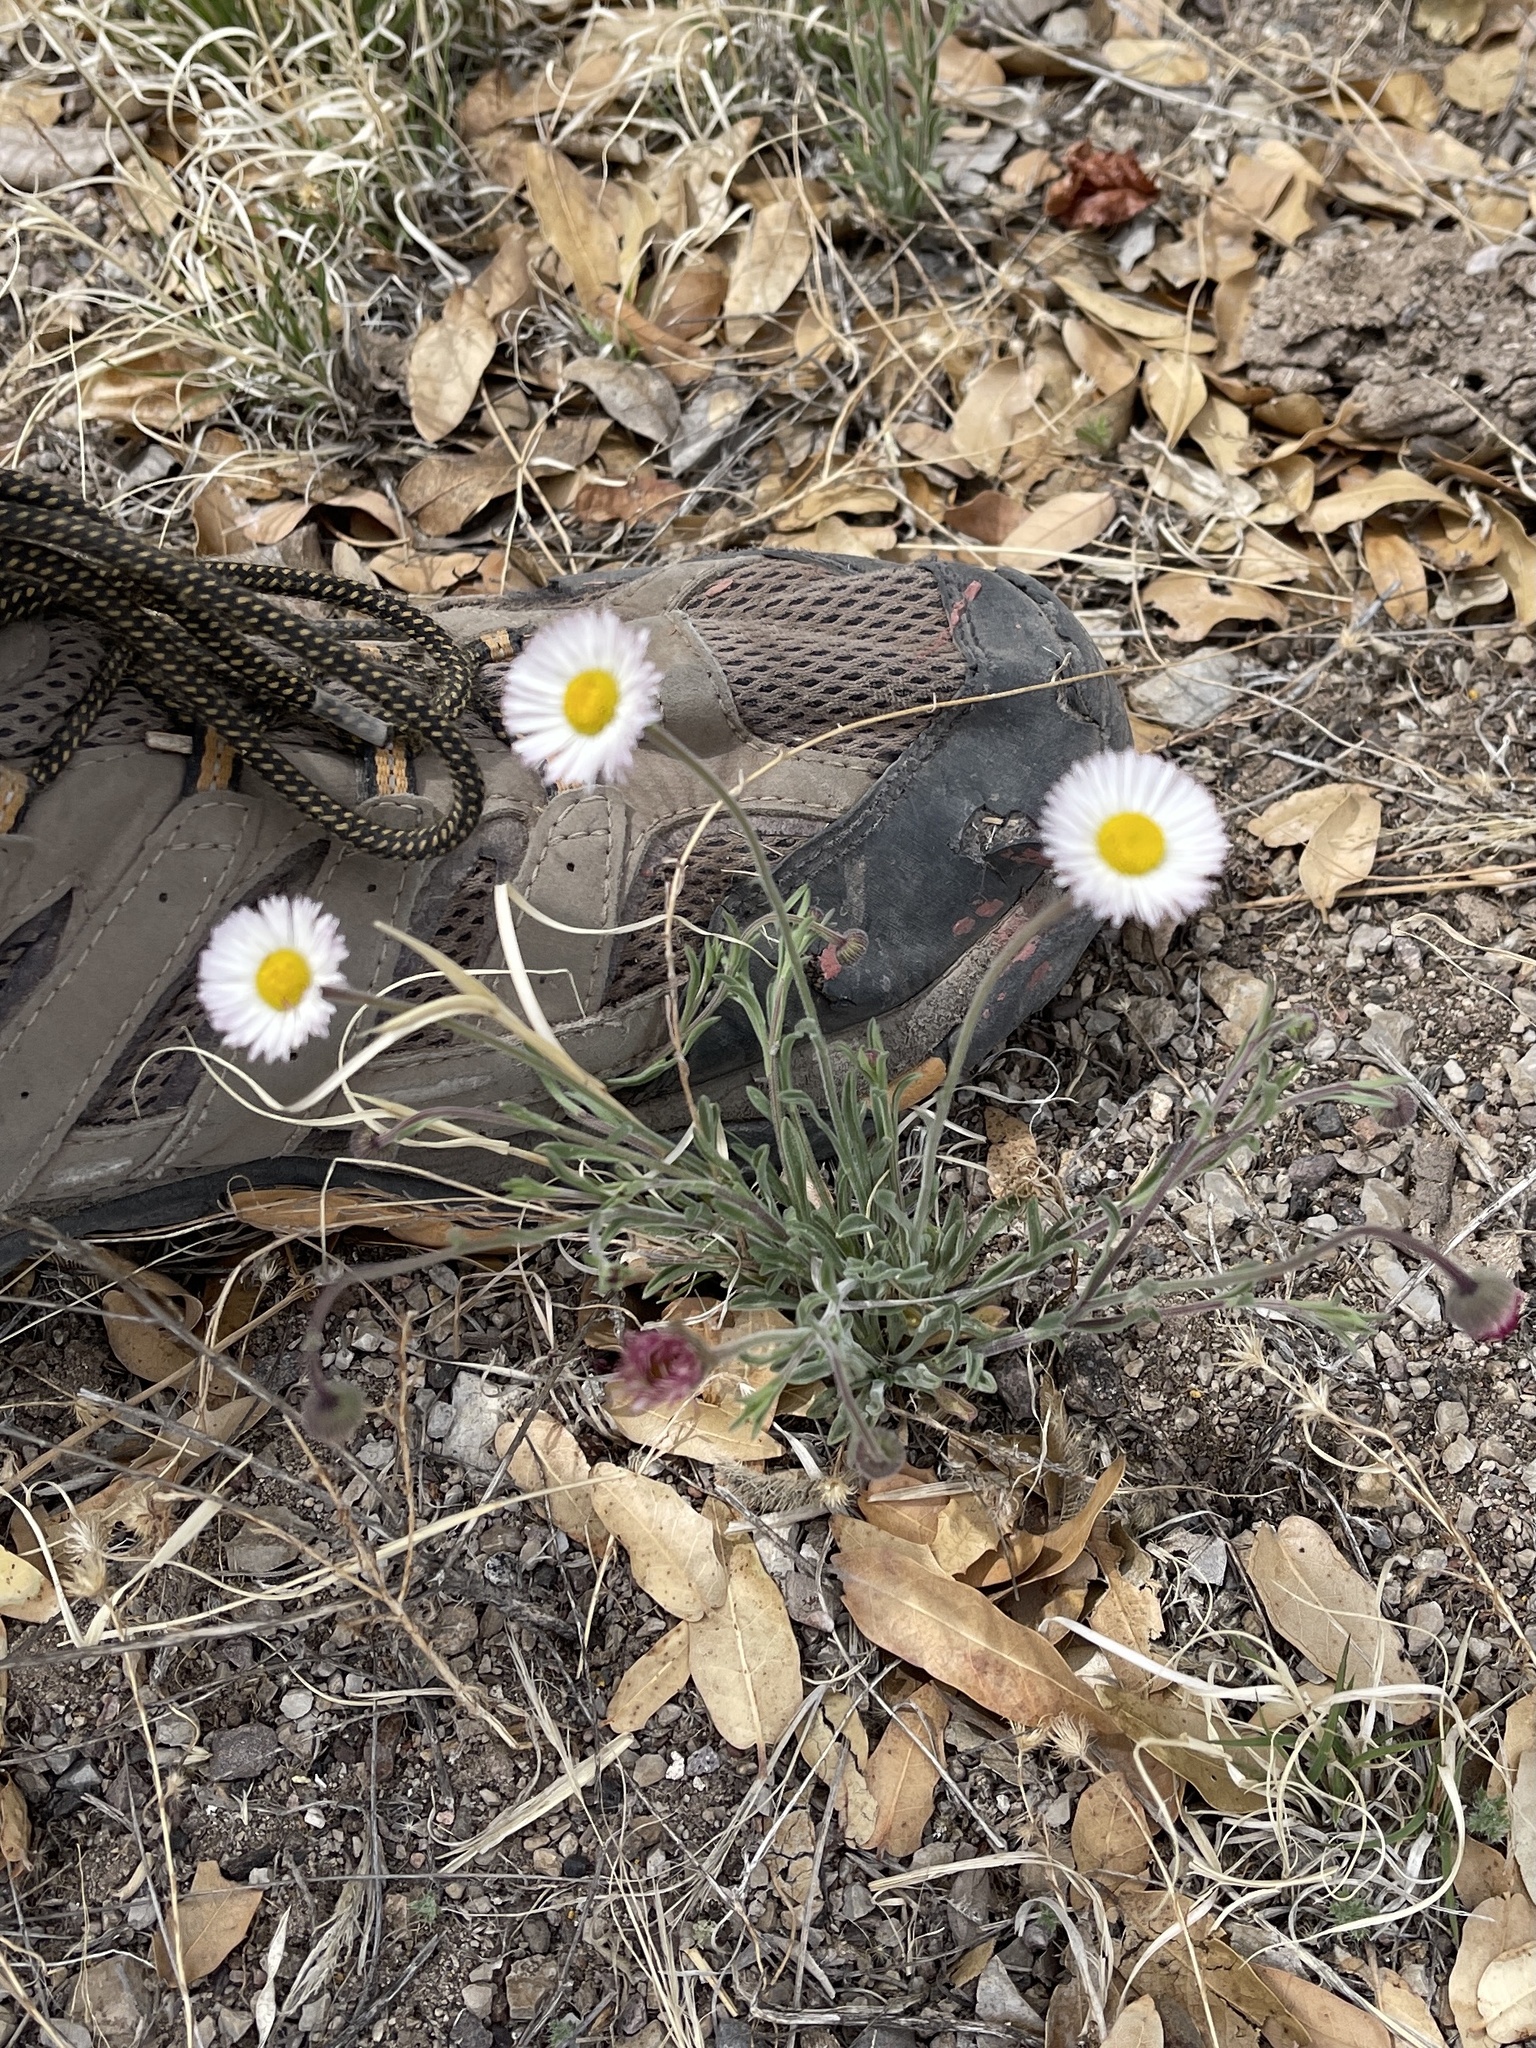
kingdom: Plantae
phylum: Tracheophyta
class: Magnoliopsida
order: Asterales
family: Asteraceae
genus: Erigeron
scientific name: Erigeron divergens
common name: Diffuse fleabane
